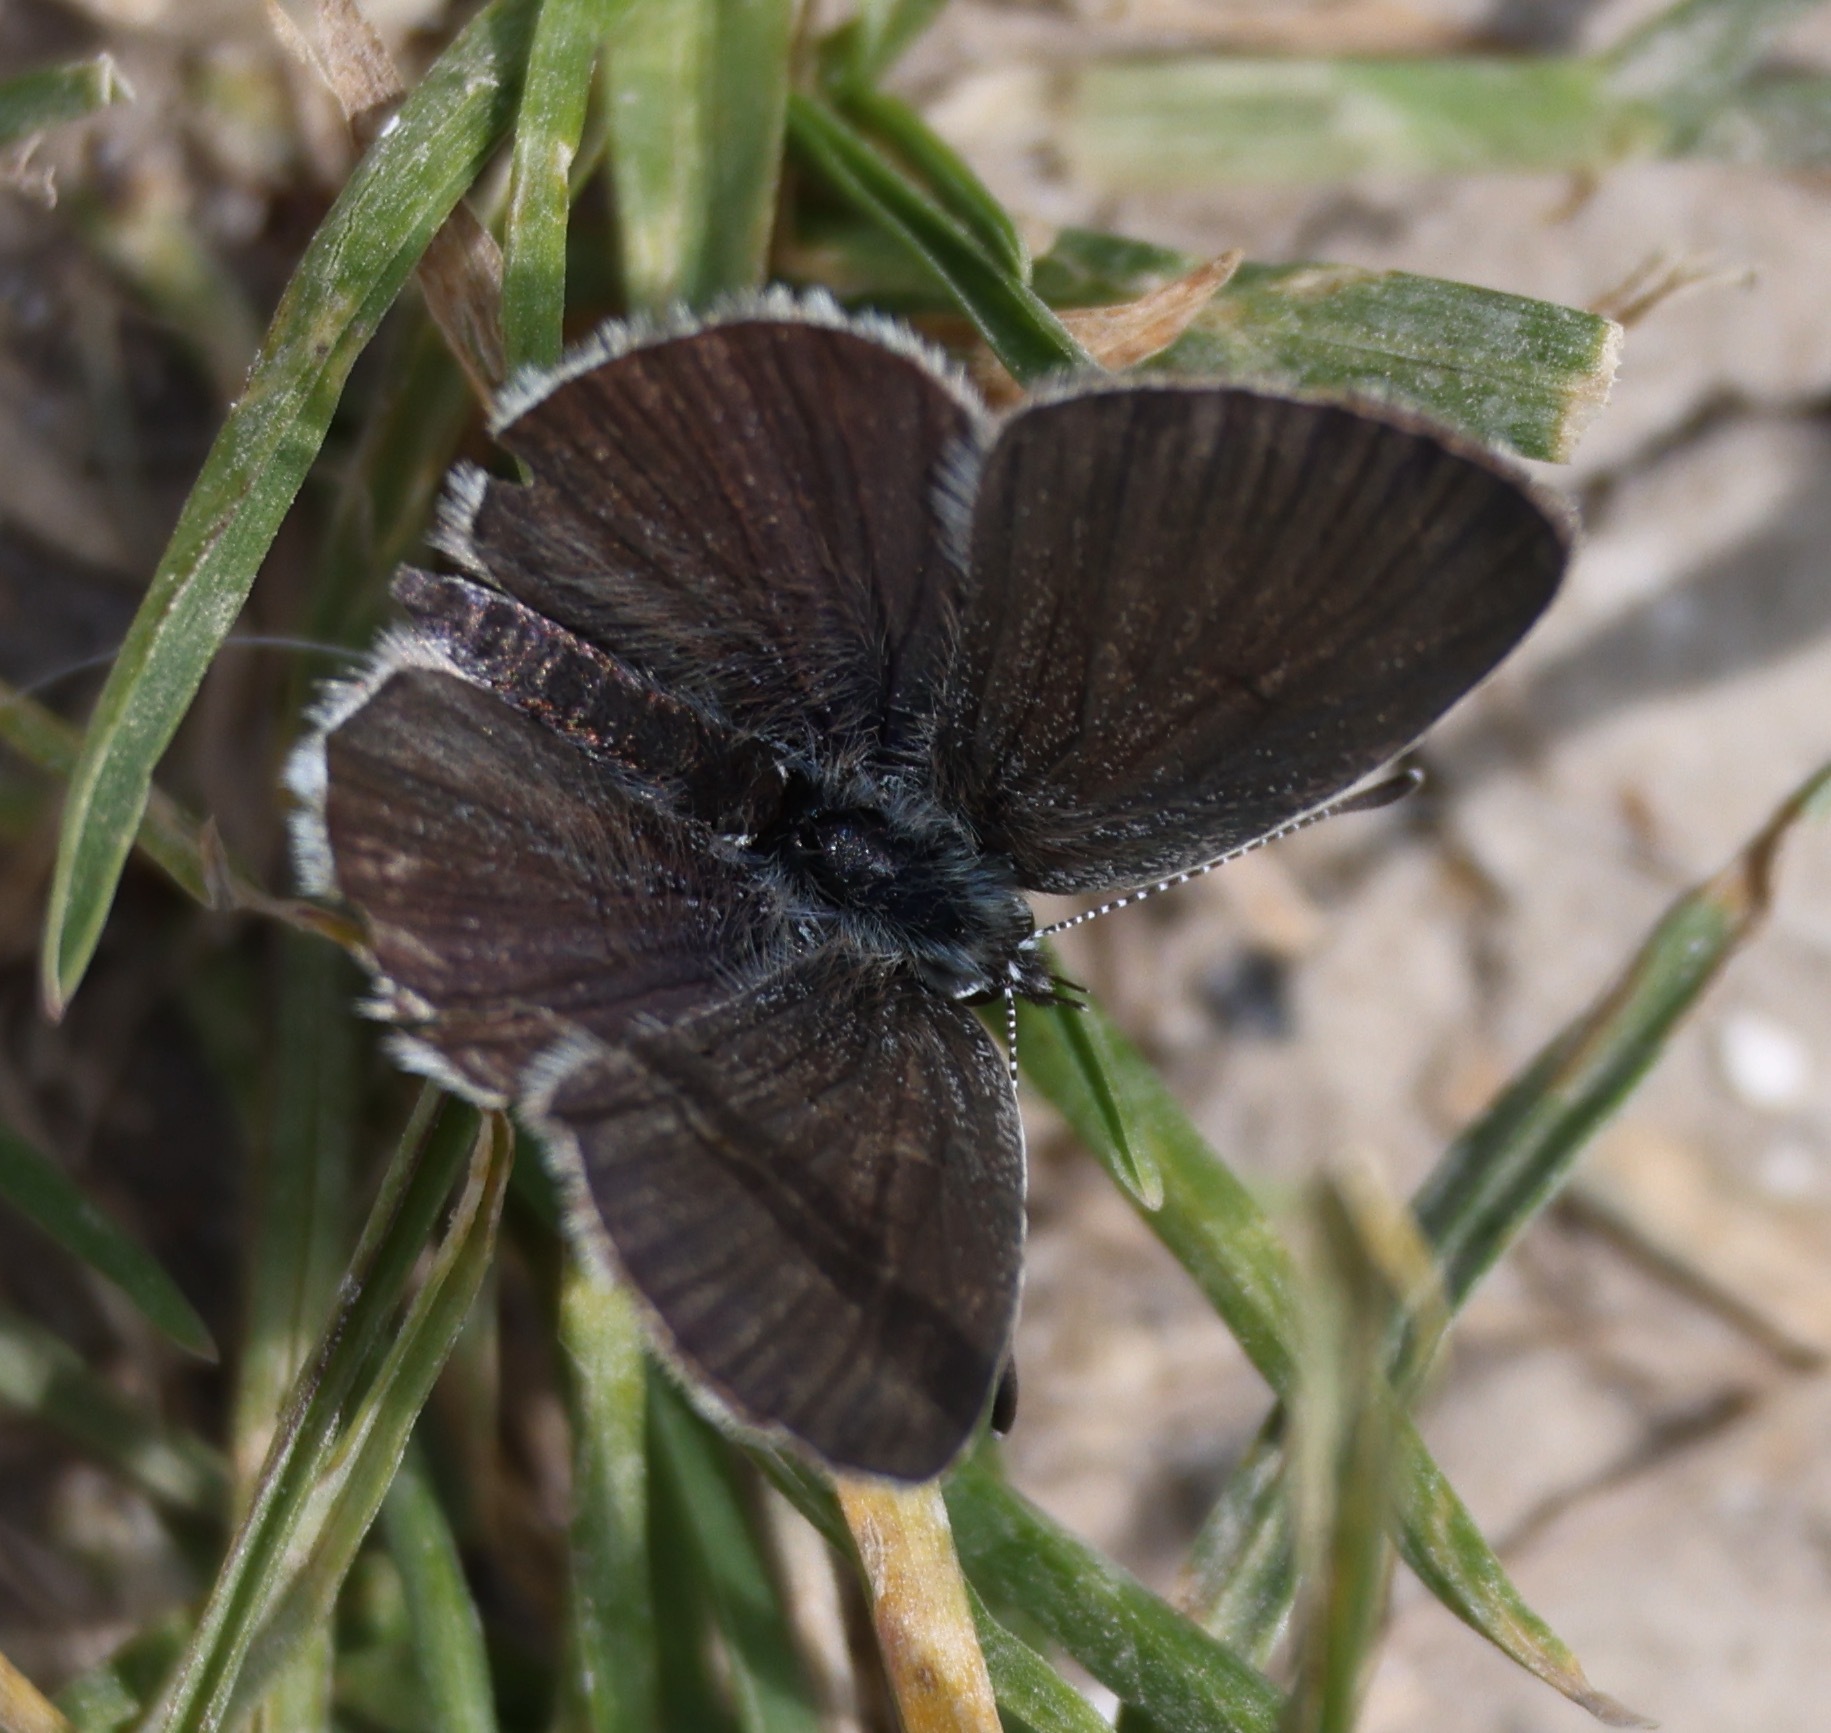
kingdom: Animalia
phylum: Arthropoda
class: Insecta
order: Lepidoptera
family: Lycaenidae
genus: Cupido
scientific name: Cupido minimus
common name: Small blue
